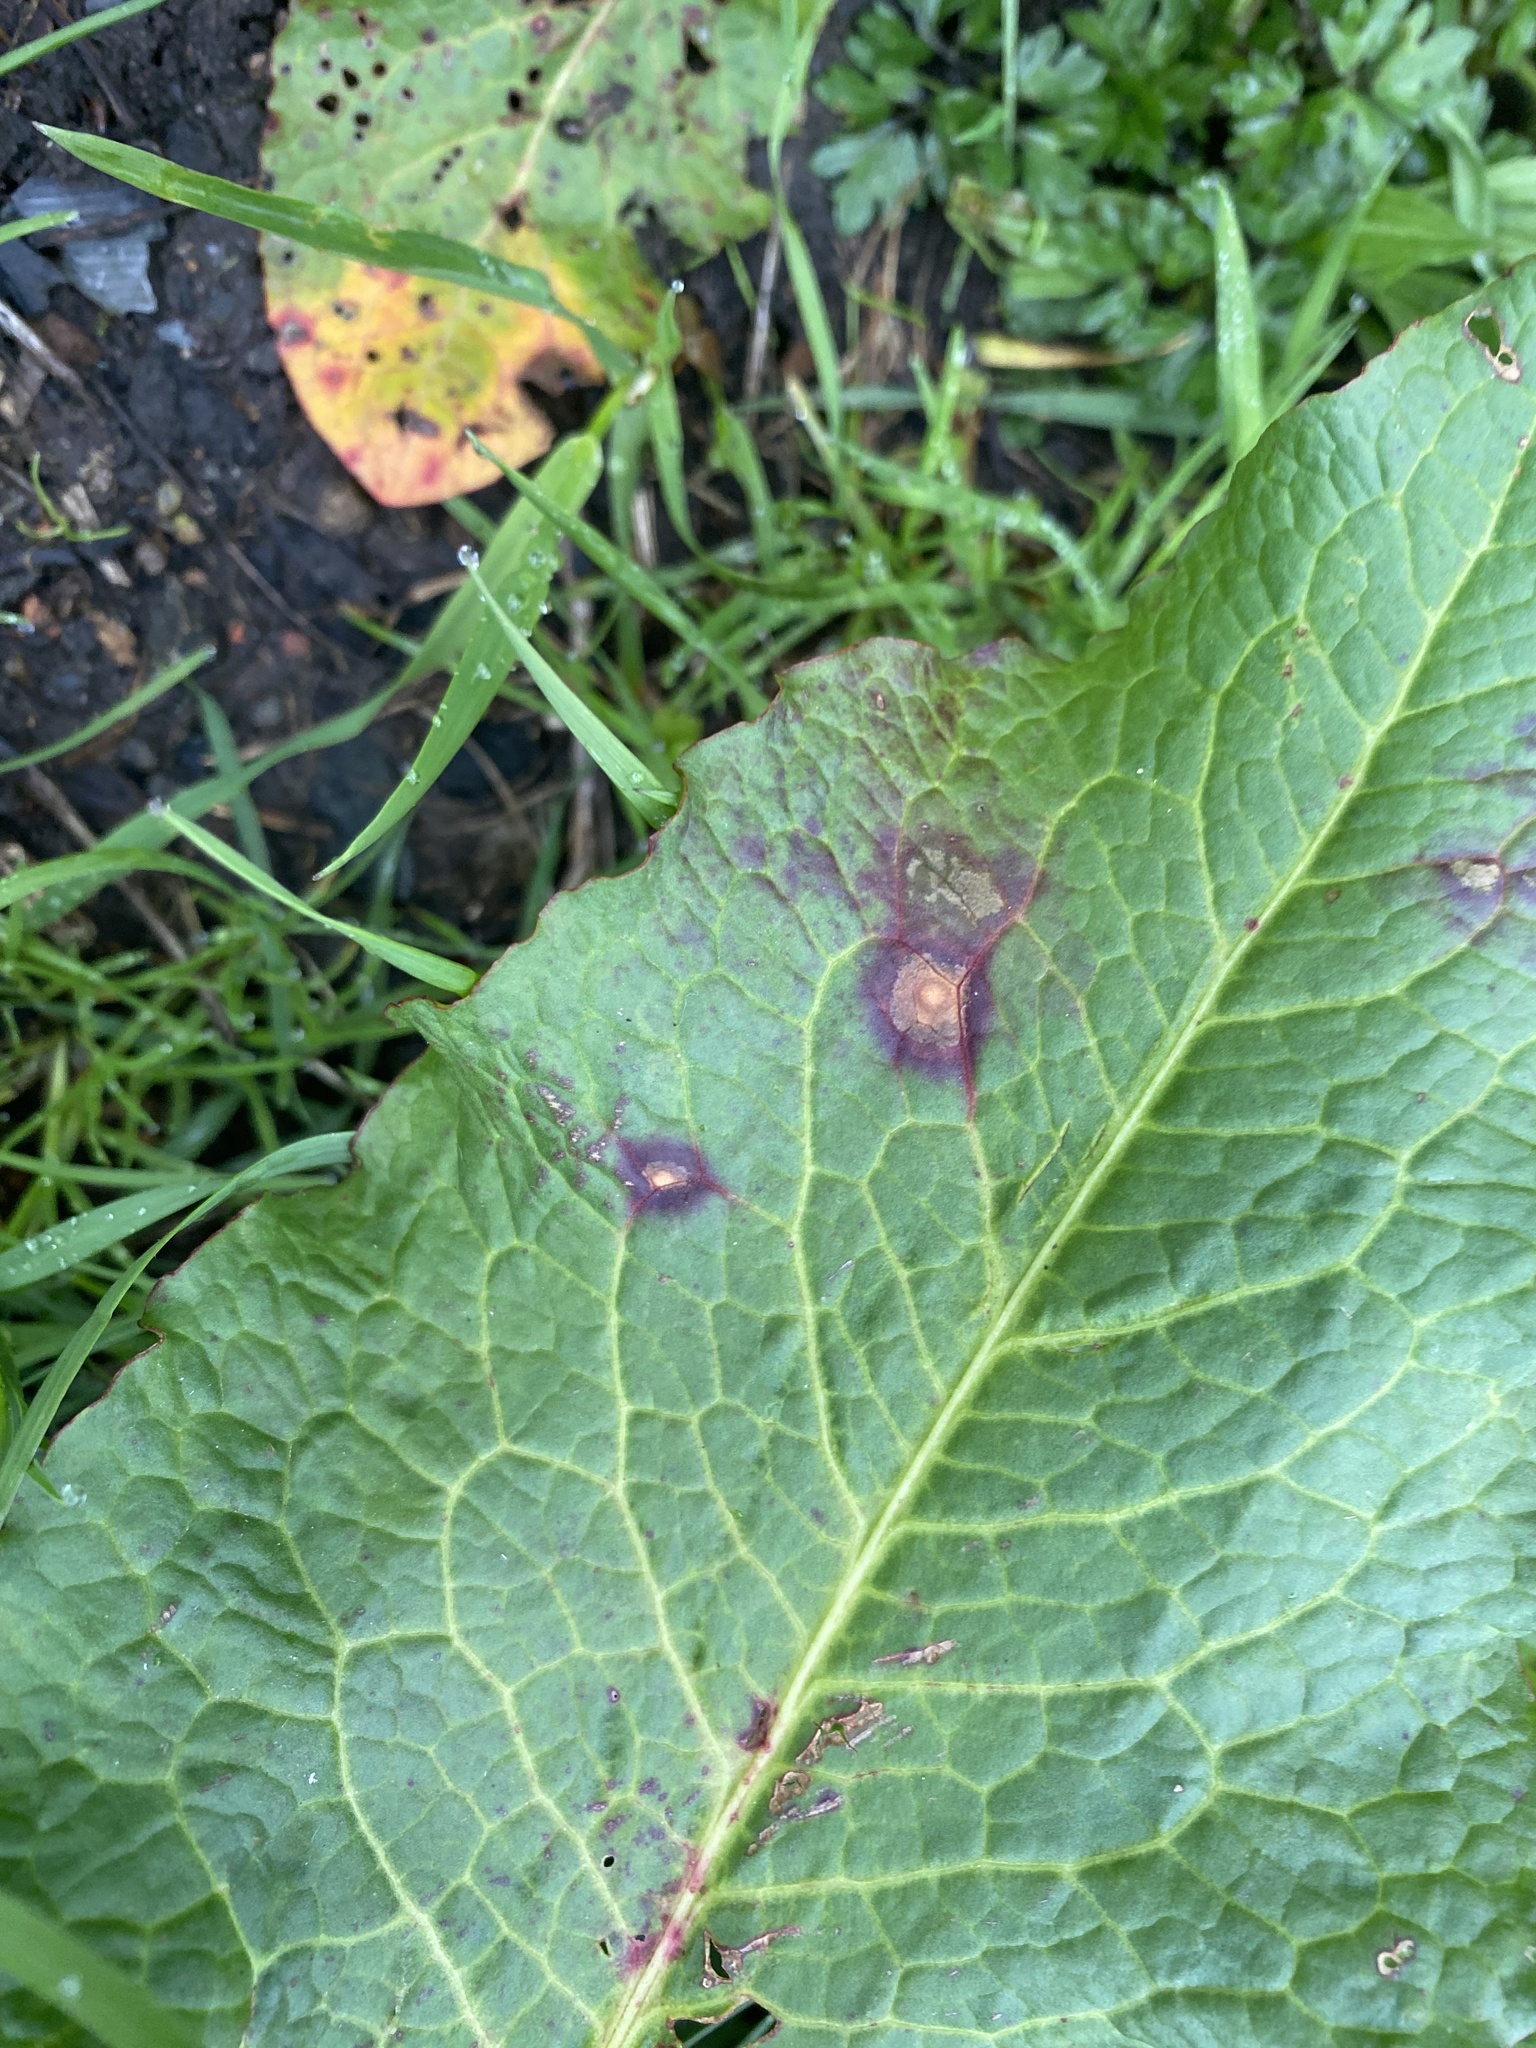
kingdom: Fungi
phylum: Ascomycota
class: Dothideomycetes
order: Mycosphaerellales
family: Mycosphaerellaceae
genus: Ramularia
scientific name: Ramularia rubella
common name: Red dock spot
